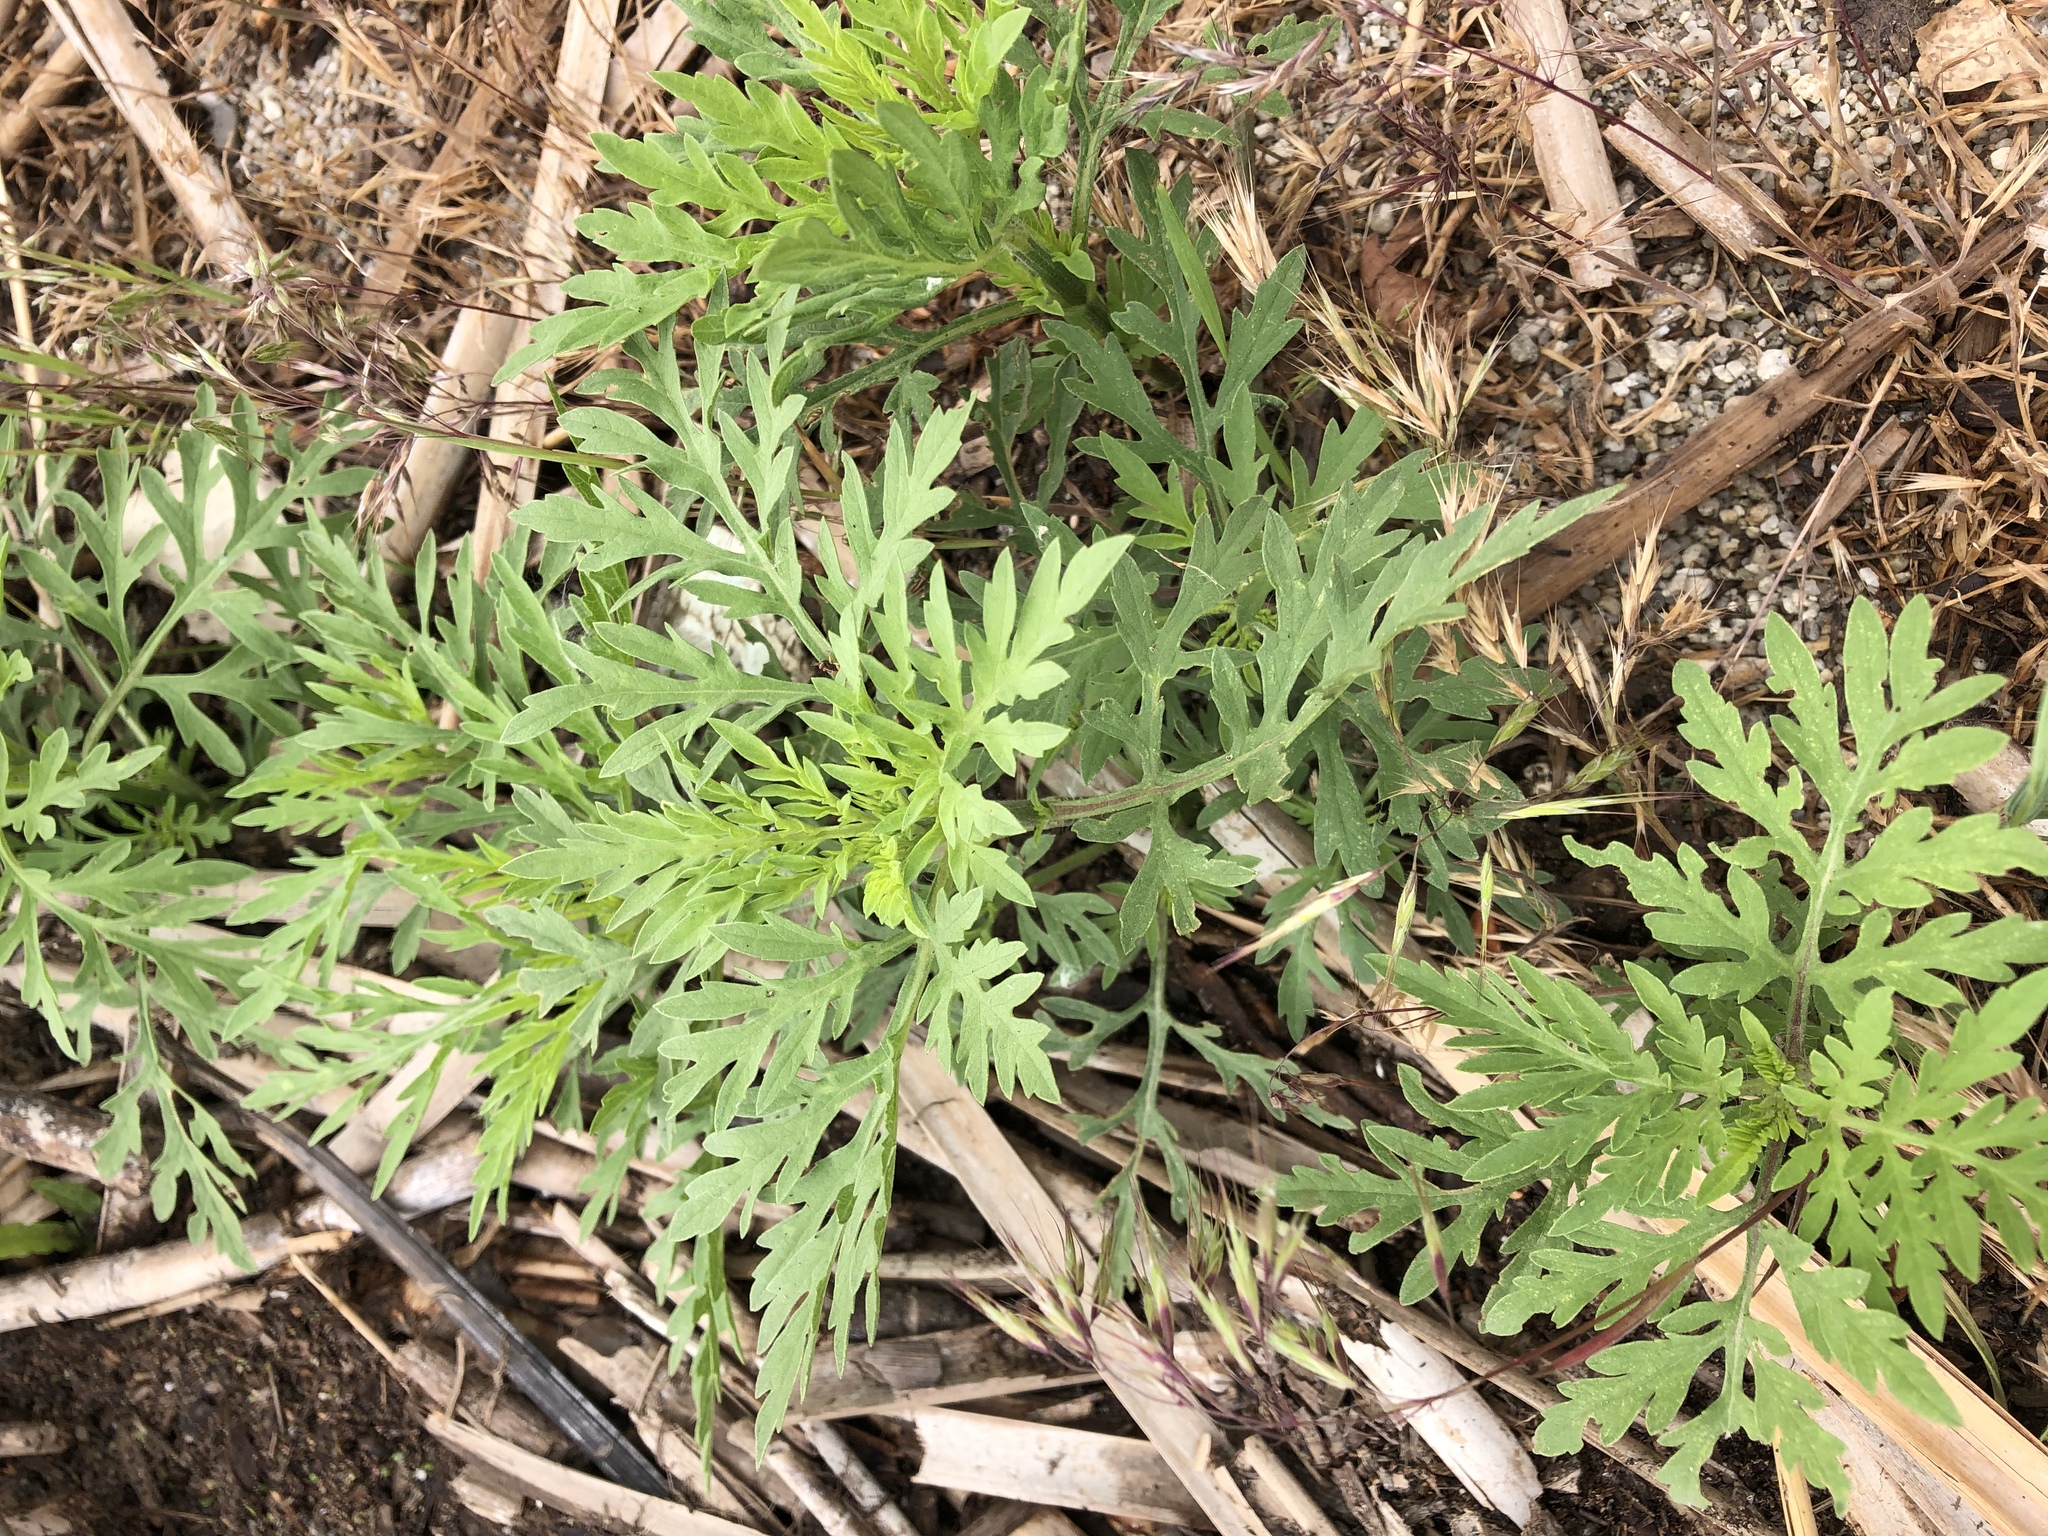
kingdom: Plantae
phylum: Tracheophyta
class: Magnoliopsida
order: Asterales
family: Asteraceae
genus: Ambrosia
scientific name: Ambrosia artemisiifolia
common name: Annual ragweed
